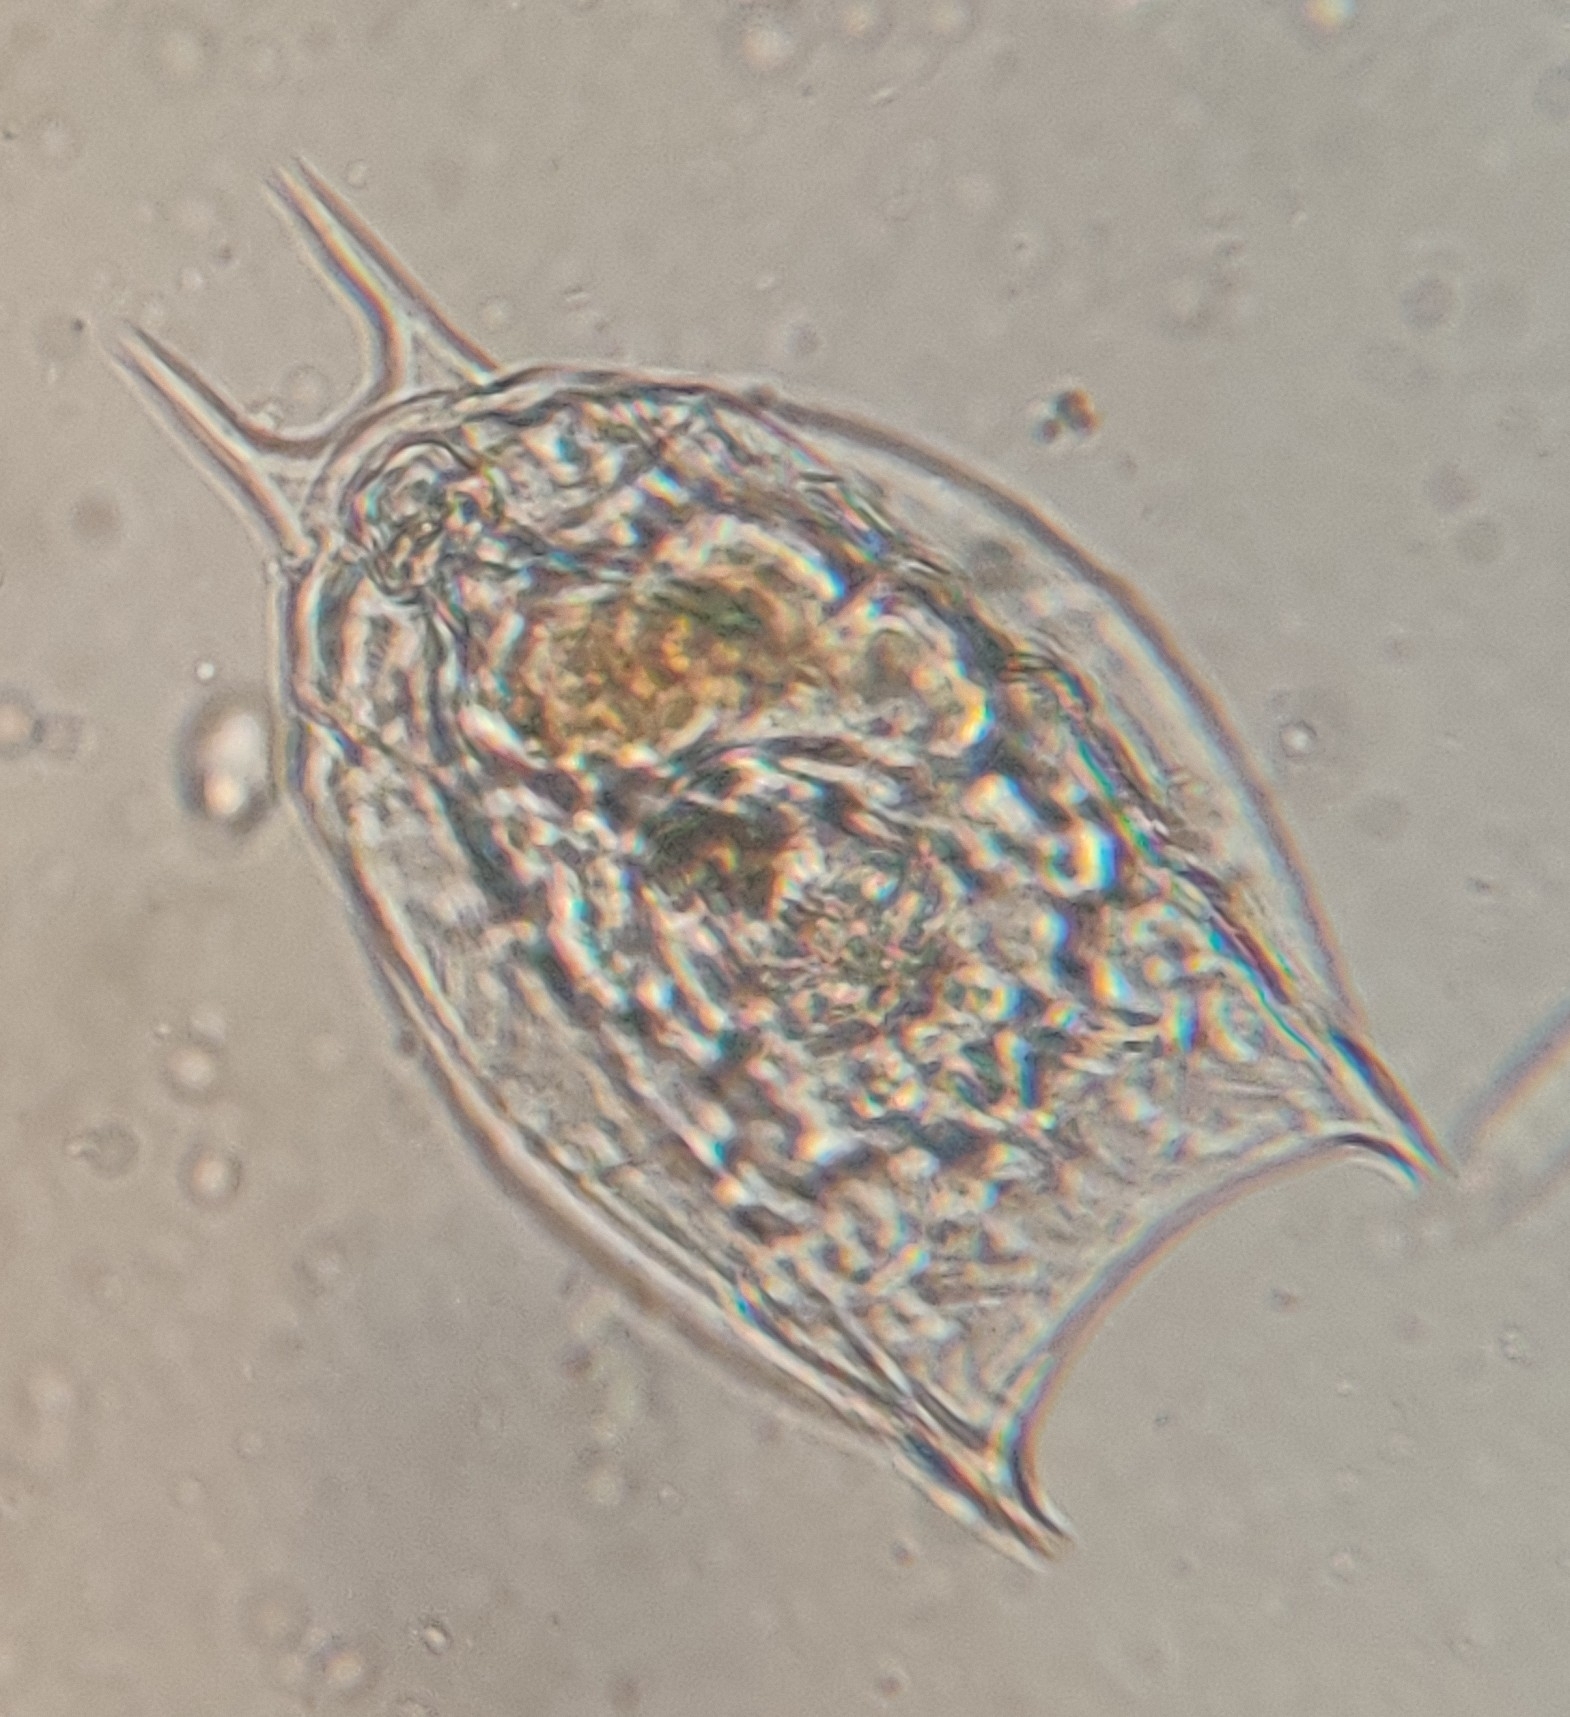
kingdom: Animalia
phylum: Rotifera
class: Eurotatoria
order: Ploima
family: Lecanidae
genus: Lecane
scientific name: Lecane stokesii
